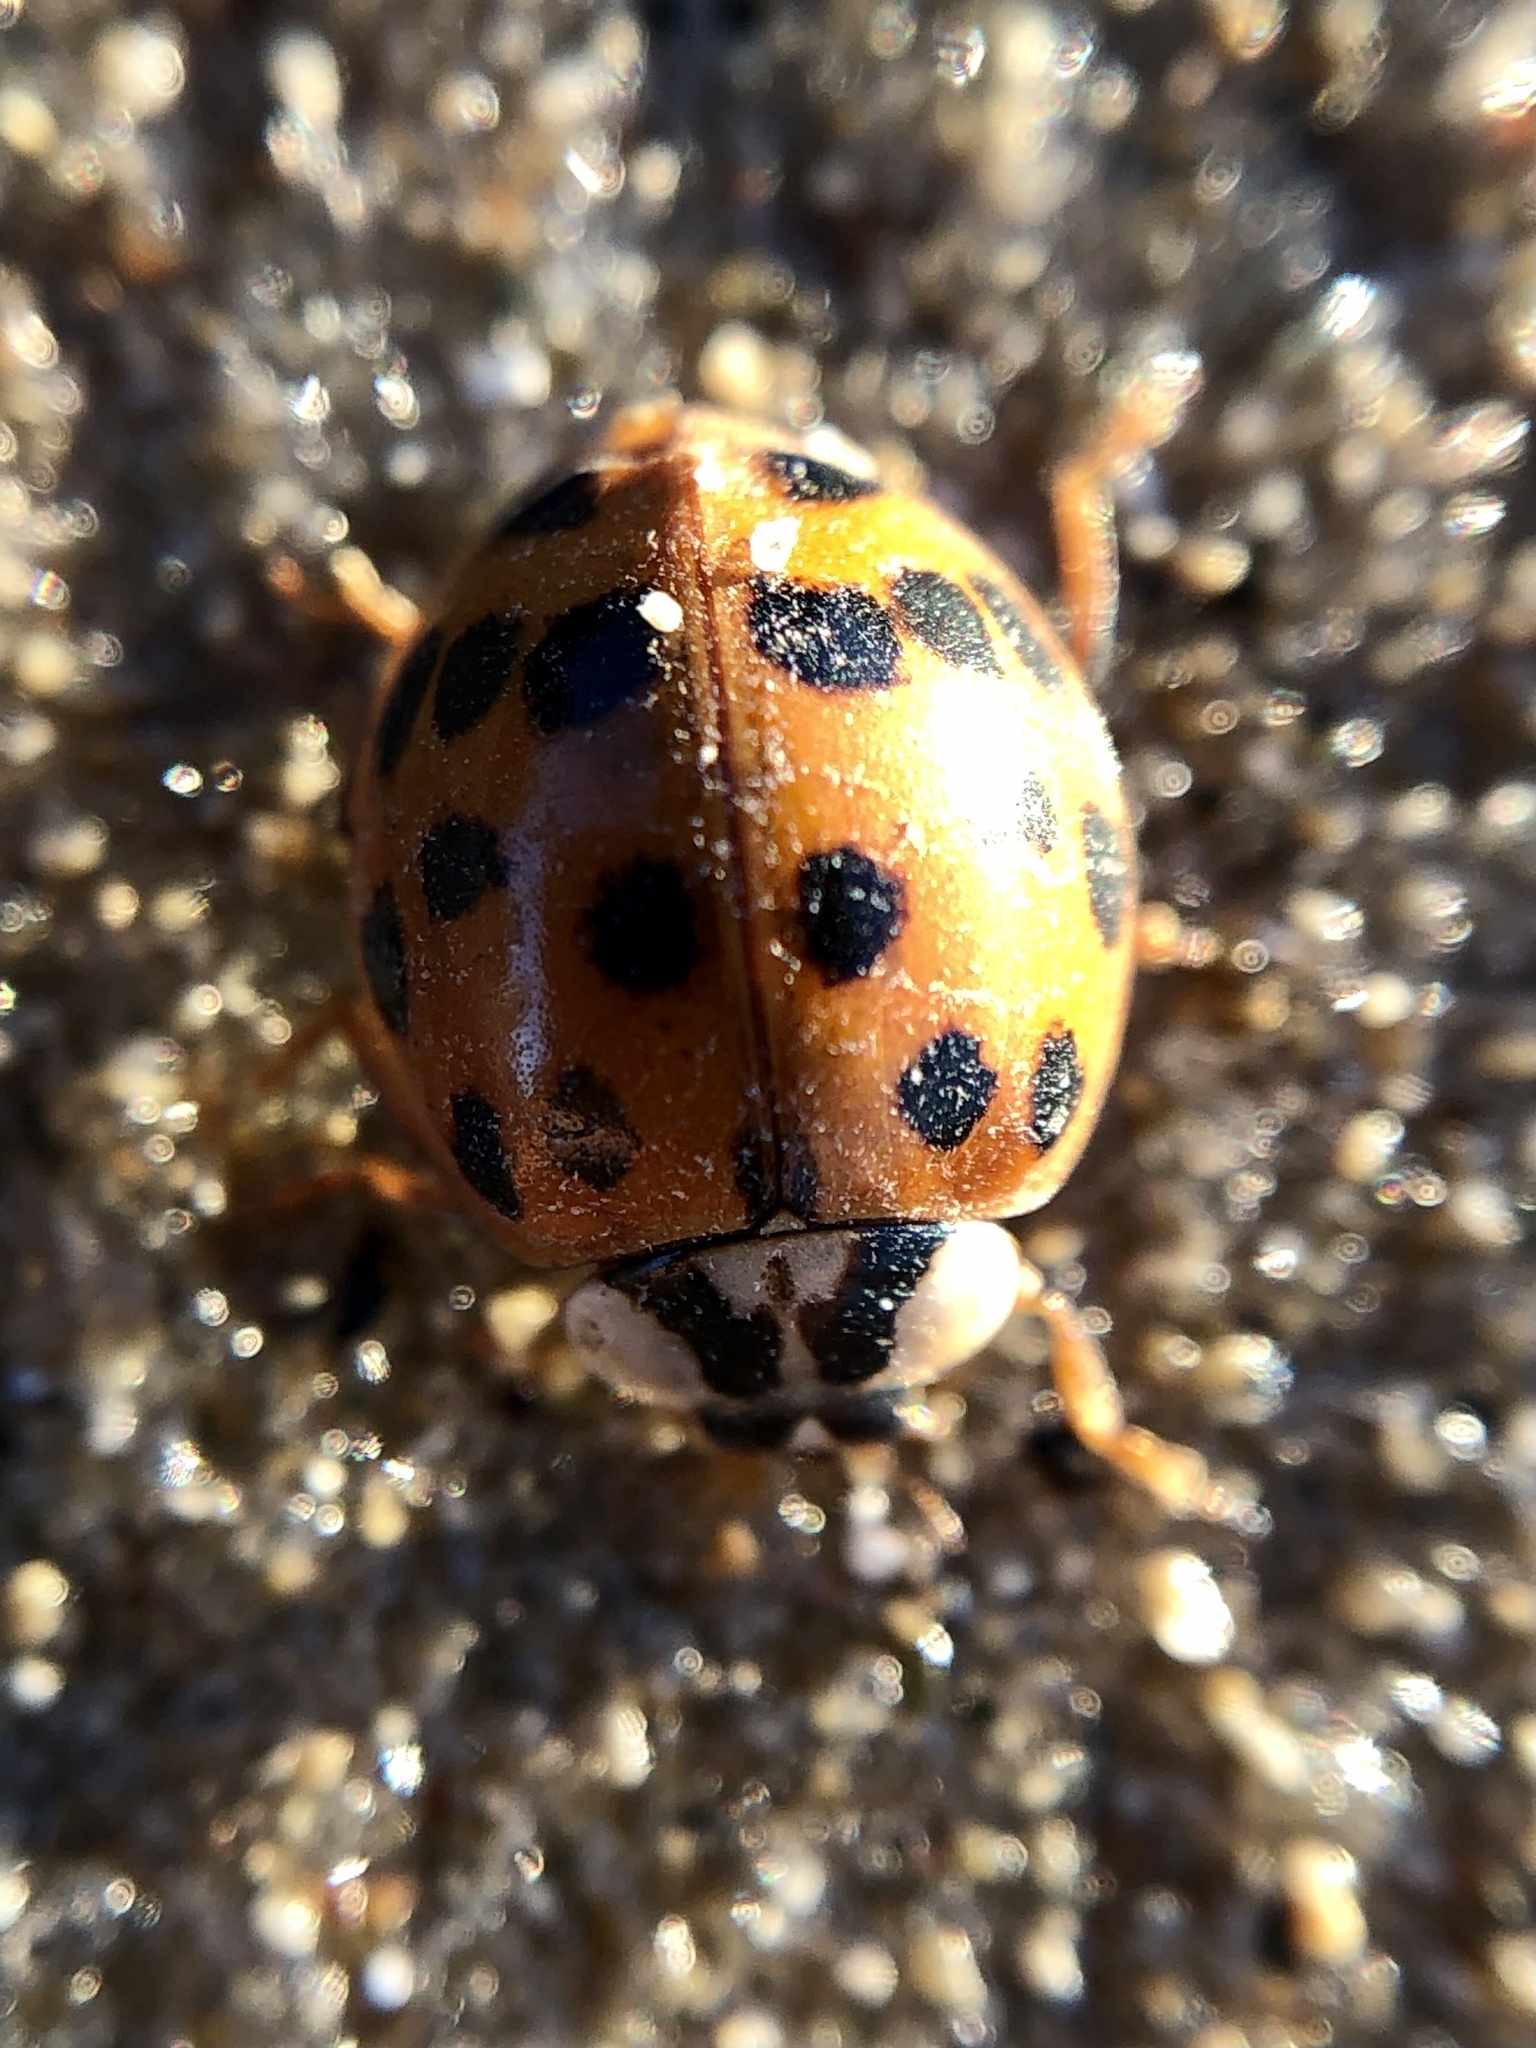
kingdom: Animalia
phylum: Arthropoda
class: Insecta
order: Coleoptera
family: Coccinellidae
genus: Harmonia
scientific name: Harmonia axyridis
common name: Harlequin ladybird
